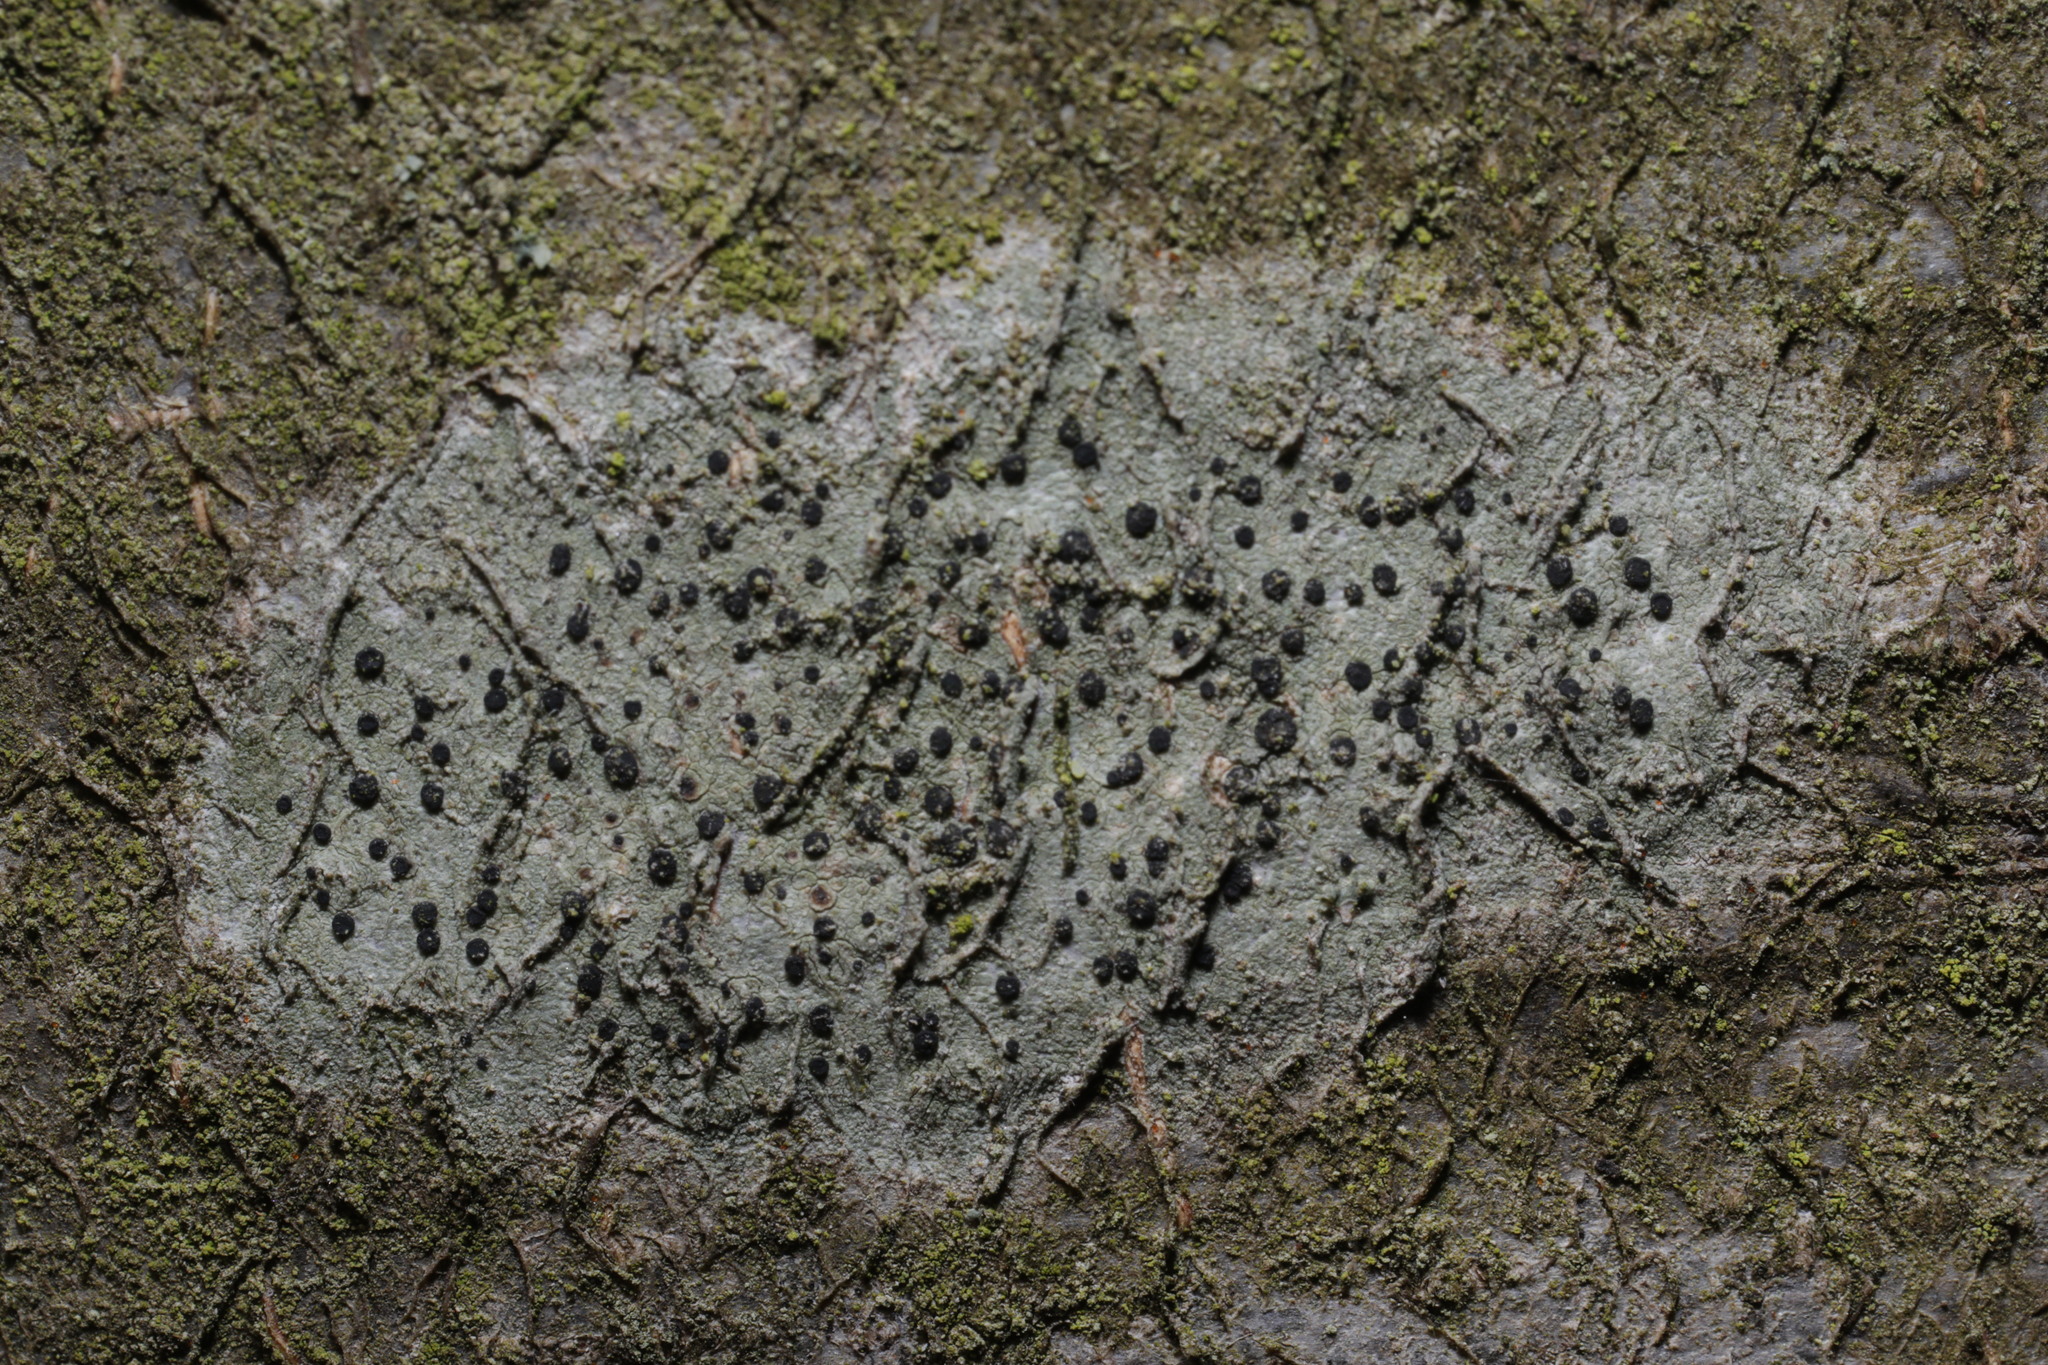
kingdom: Fungi
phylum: Ascomycota
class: Lecanoromycetes
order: Lecanorales
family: Lecanoraceae
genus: Lecidella
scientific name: Lecidella elaeochroma
